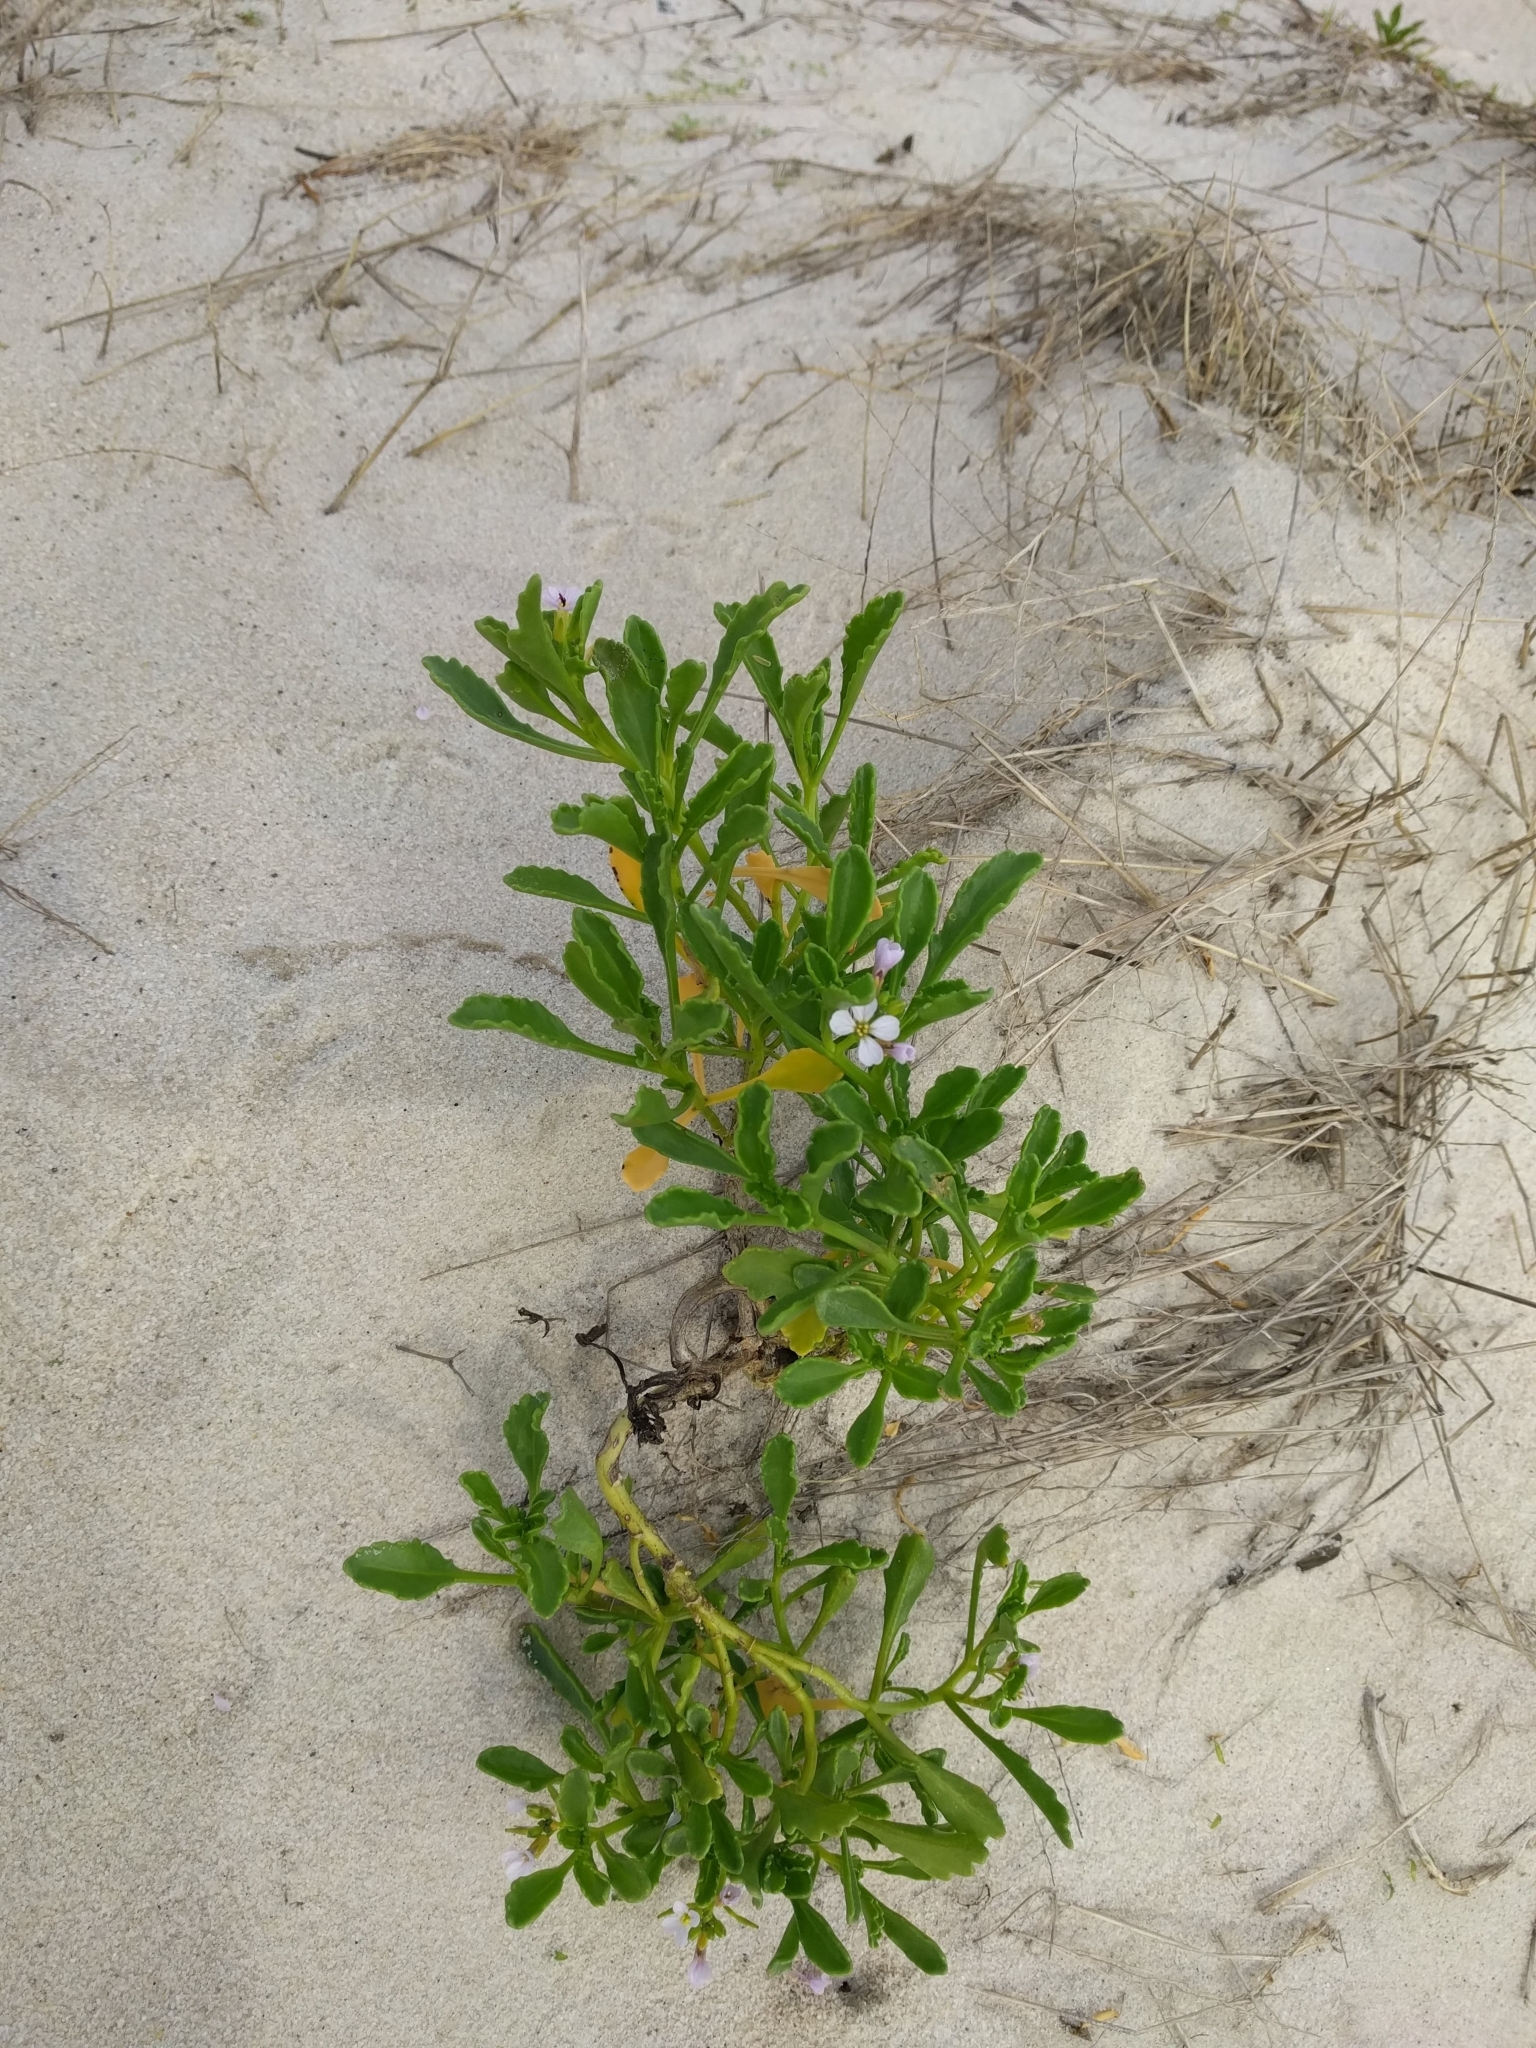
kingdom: Plantae
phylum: Tracheophyta
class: Magnoliopsida
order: Brassicales
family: Brassicaceae
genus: Cakile
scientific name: Cakile constricta
